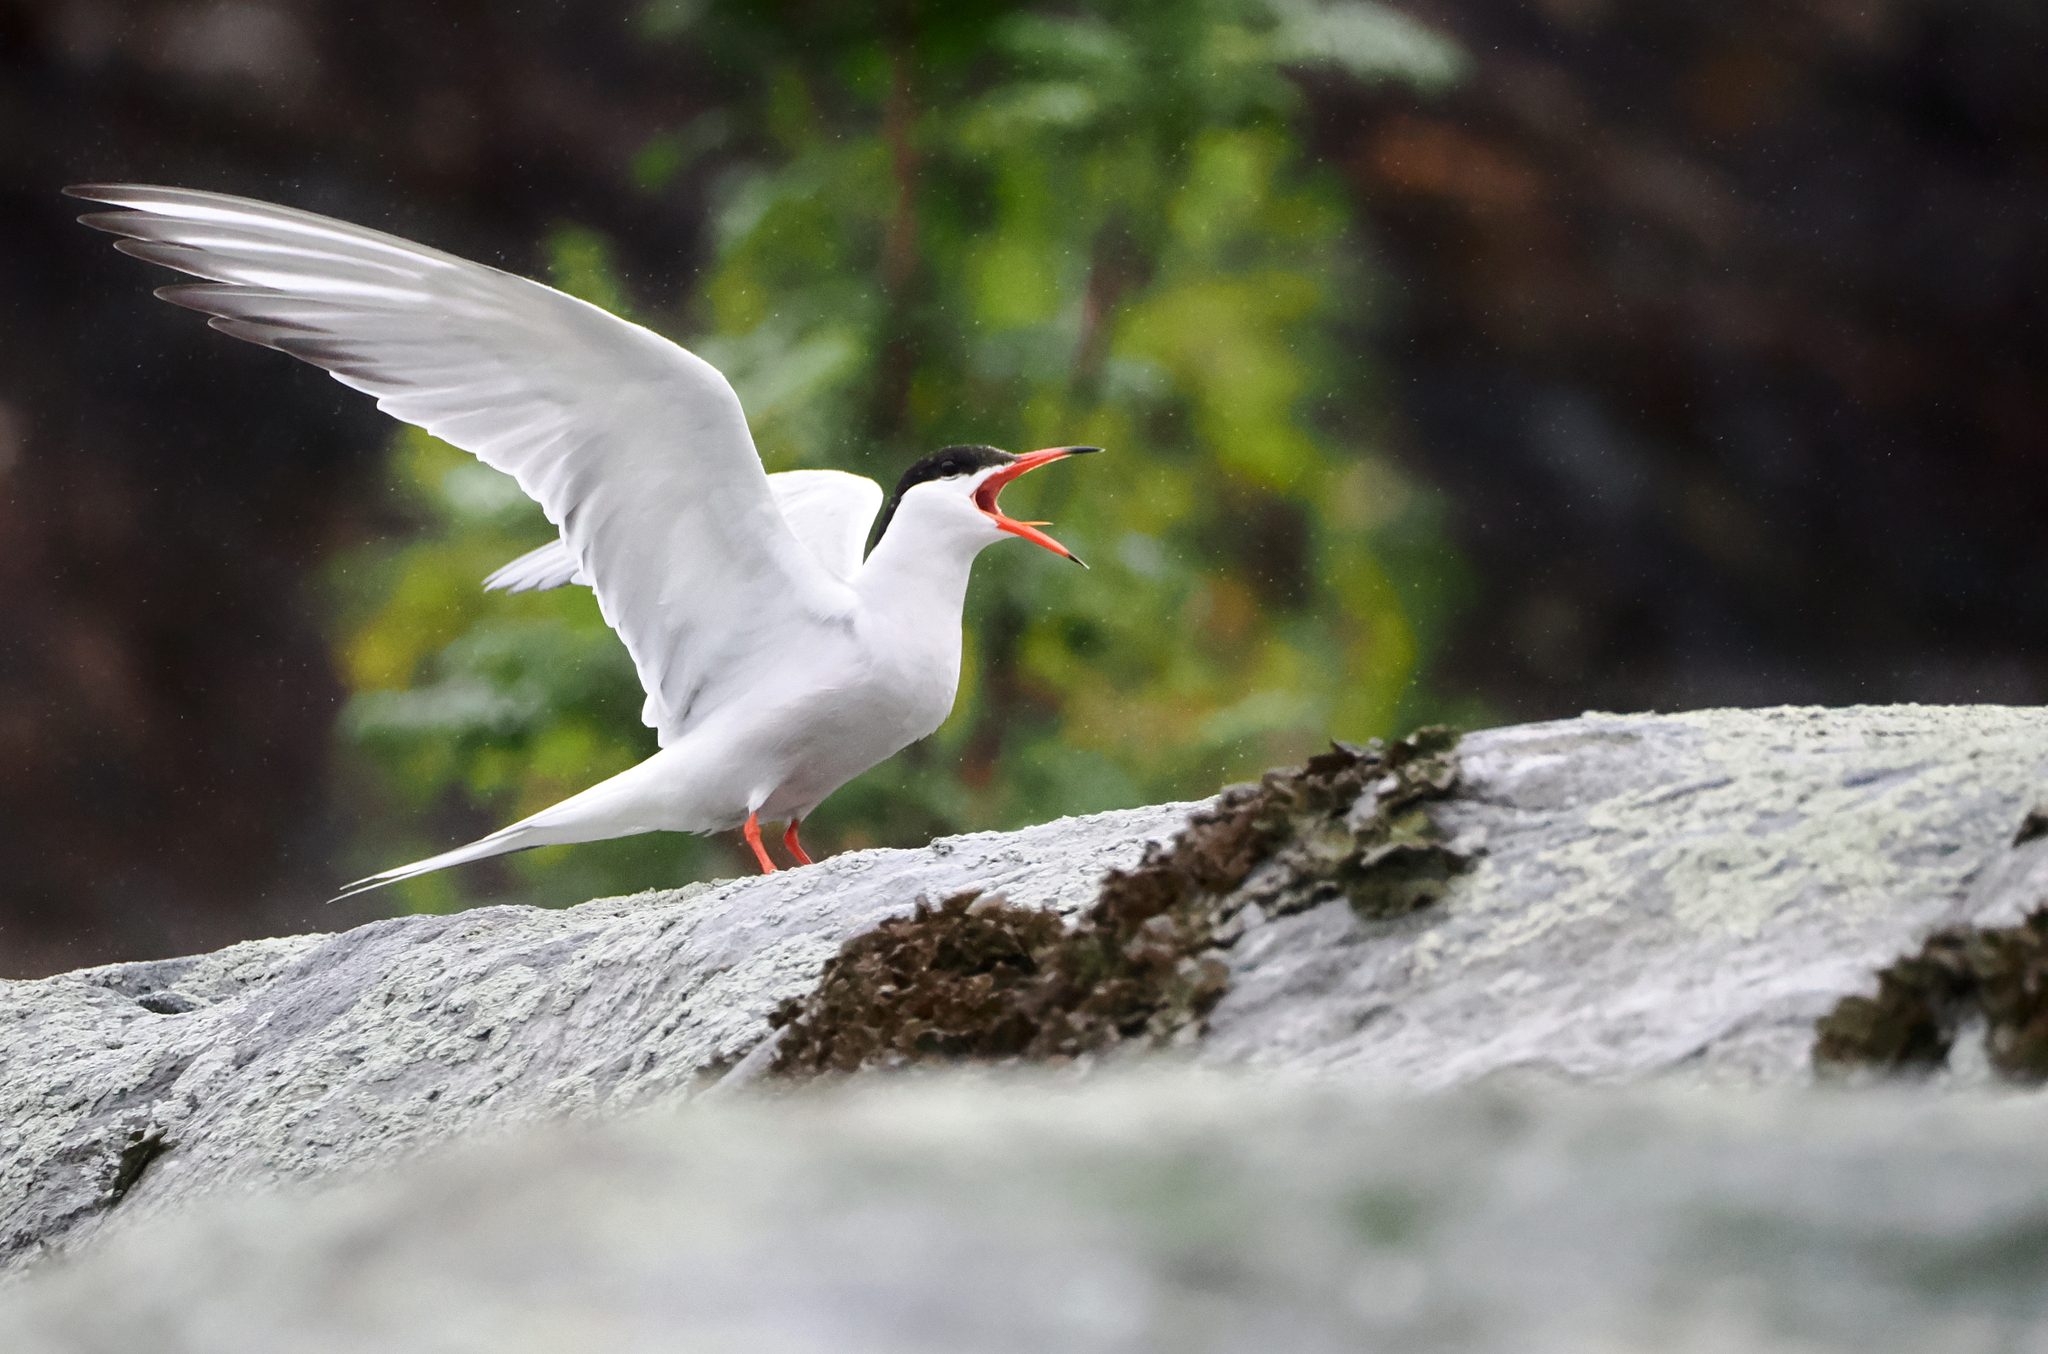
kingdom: Animalia
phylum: Chordata
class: Aves
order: Charadriiformes
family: Laridae
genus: Sterna
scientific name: Sterna hirundo
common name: Common tern
